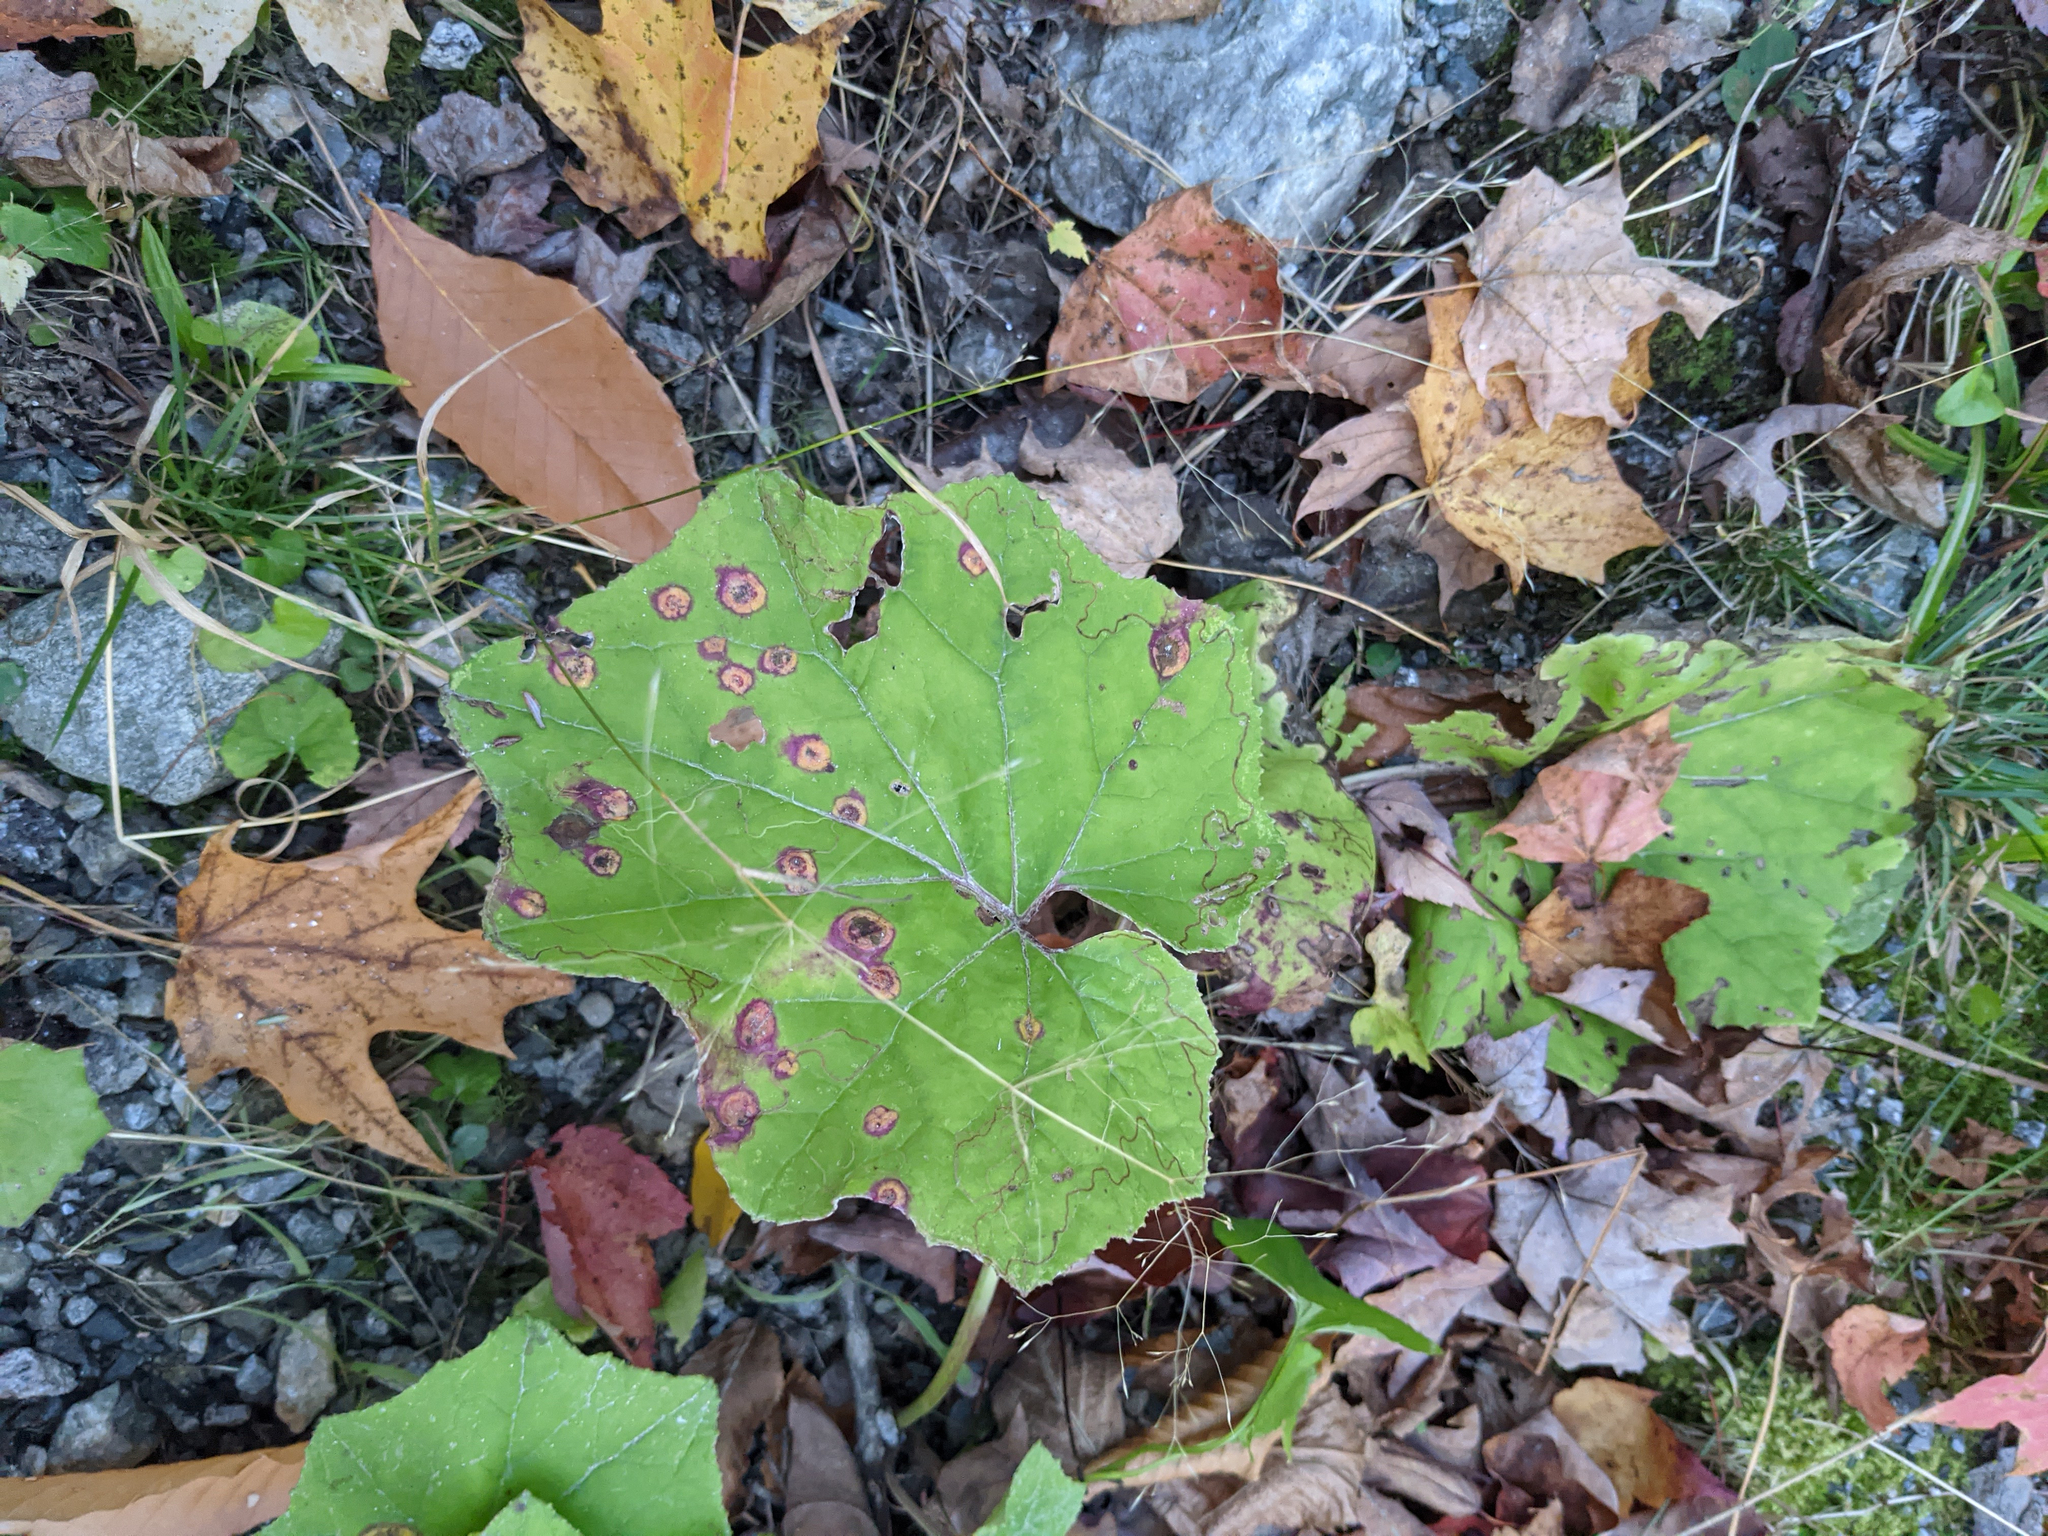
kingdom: Plantae
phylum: Tracheophyta
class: Magnoliopsida
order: Asterales
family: Asteraceae
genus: Tussilago
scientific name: Tussilago farfara
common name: Coltsfoot
